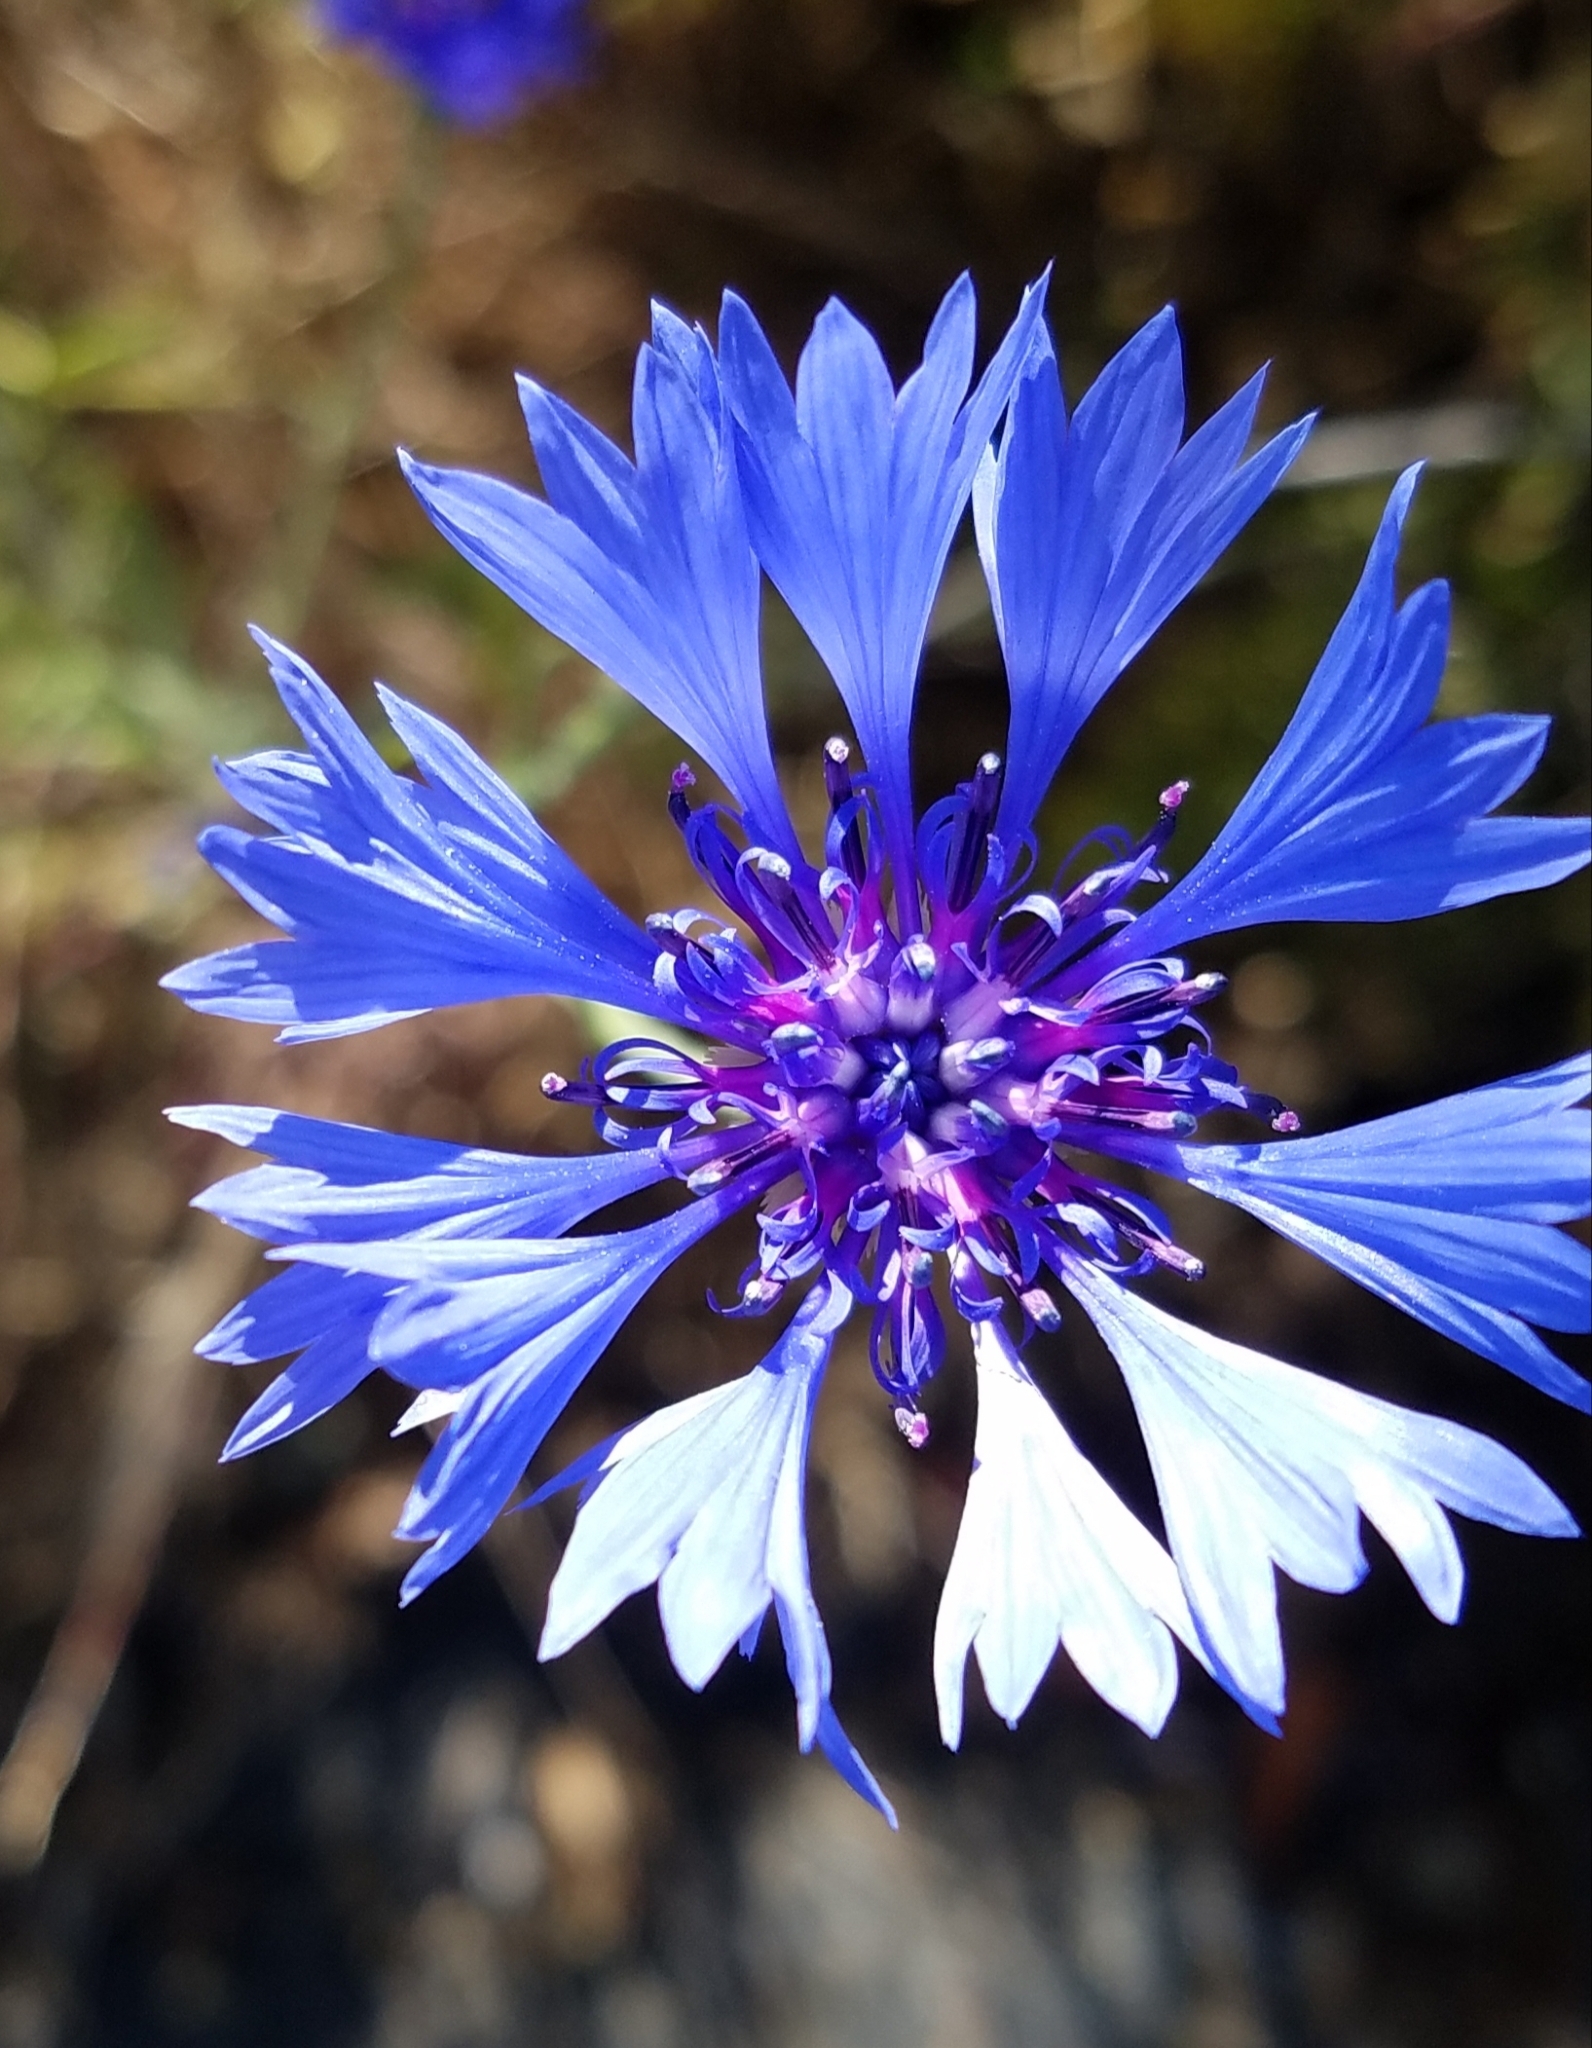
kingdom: Plantae
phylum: Tracheophyta
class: Magnoliopsida
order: Asterales
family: Asteraceae
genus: Centaurea
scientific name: Centaurea cyanus
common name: Cornflower
